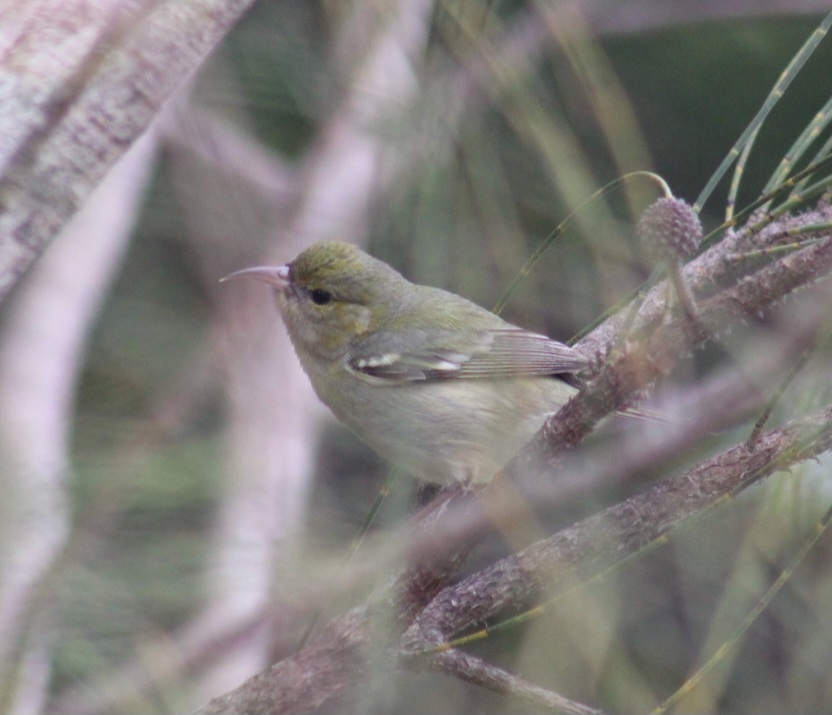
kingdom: Animalia
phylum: Chordata
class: Aves
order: Passeriformes
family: Fringillidae
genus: Chlorodrepanis
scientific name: Chlorodrepanis flava
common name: Oahu amakihi
